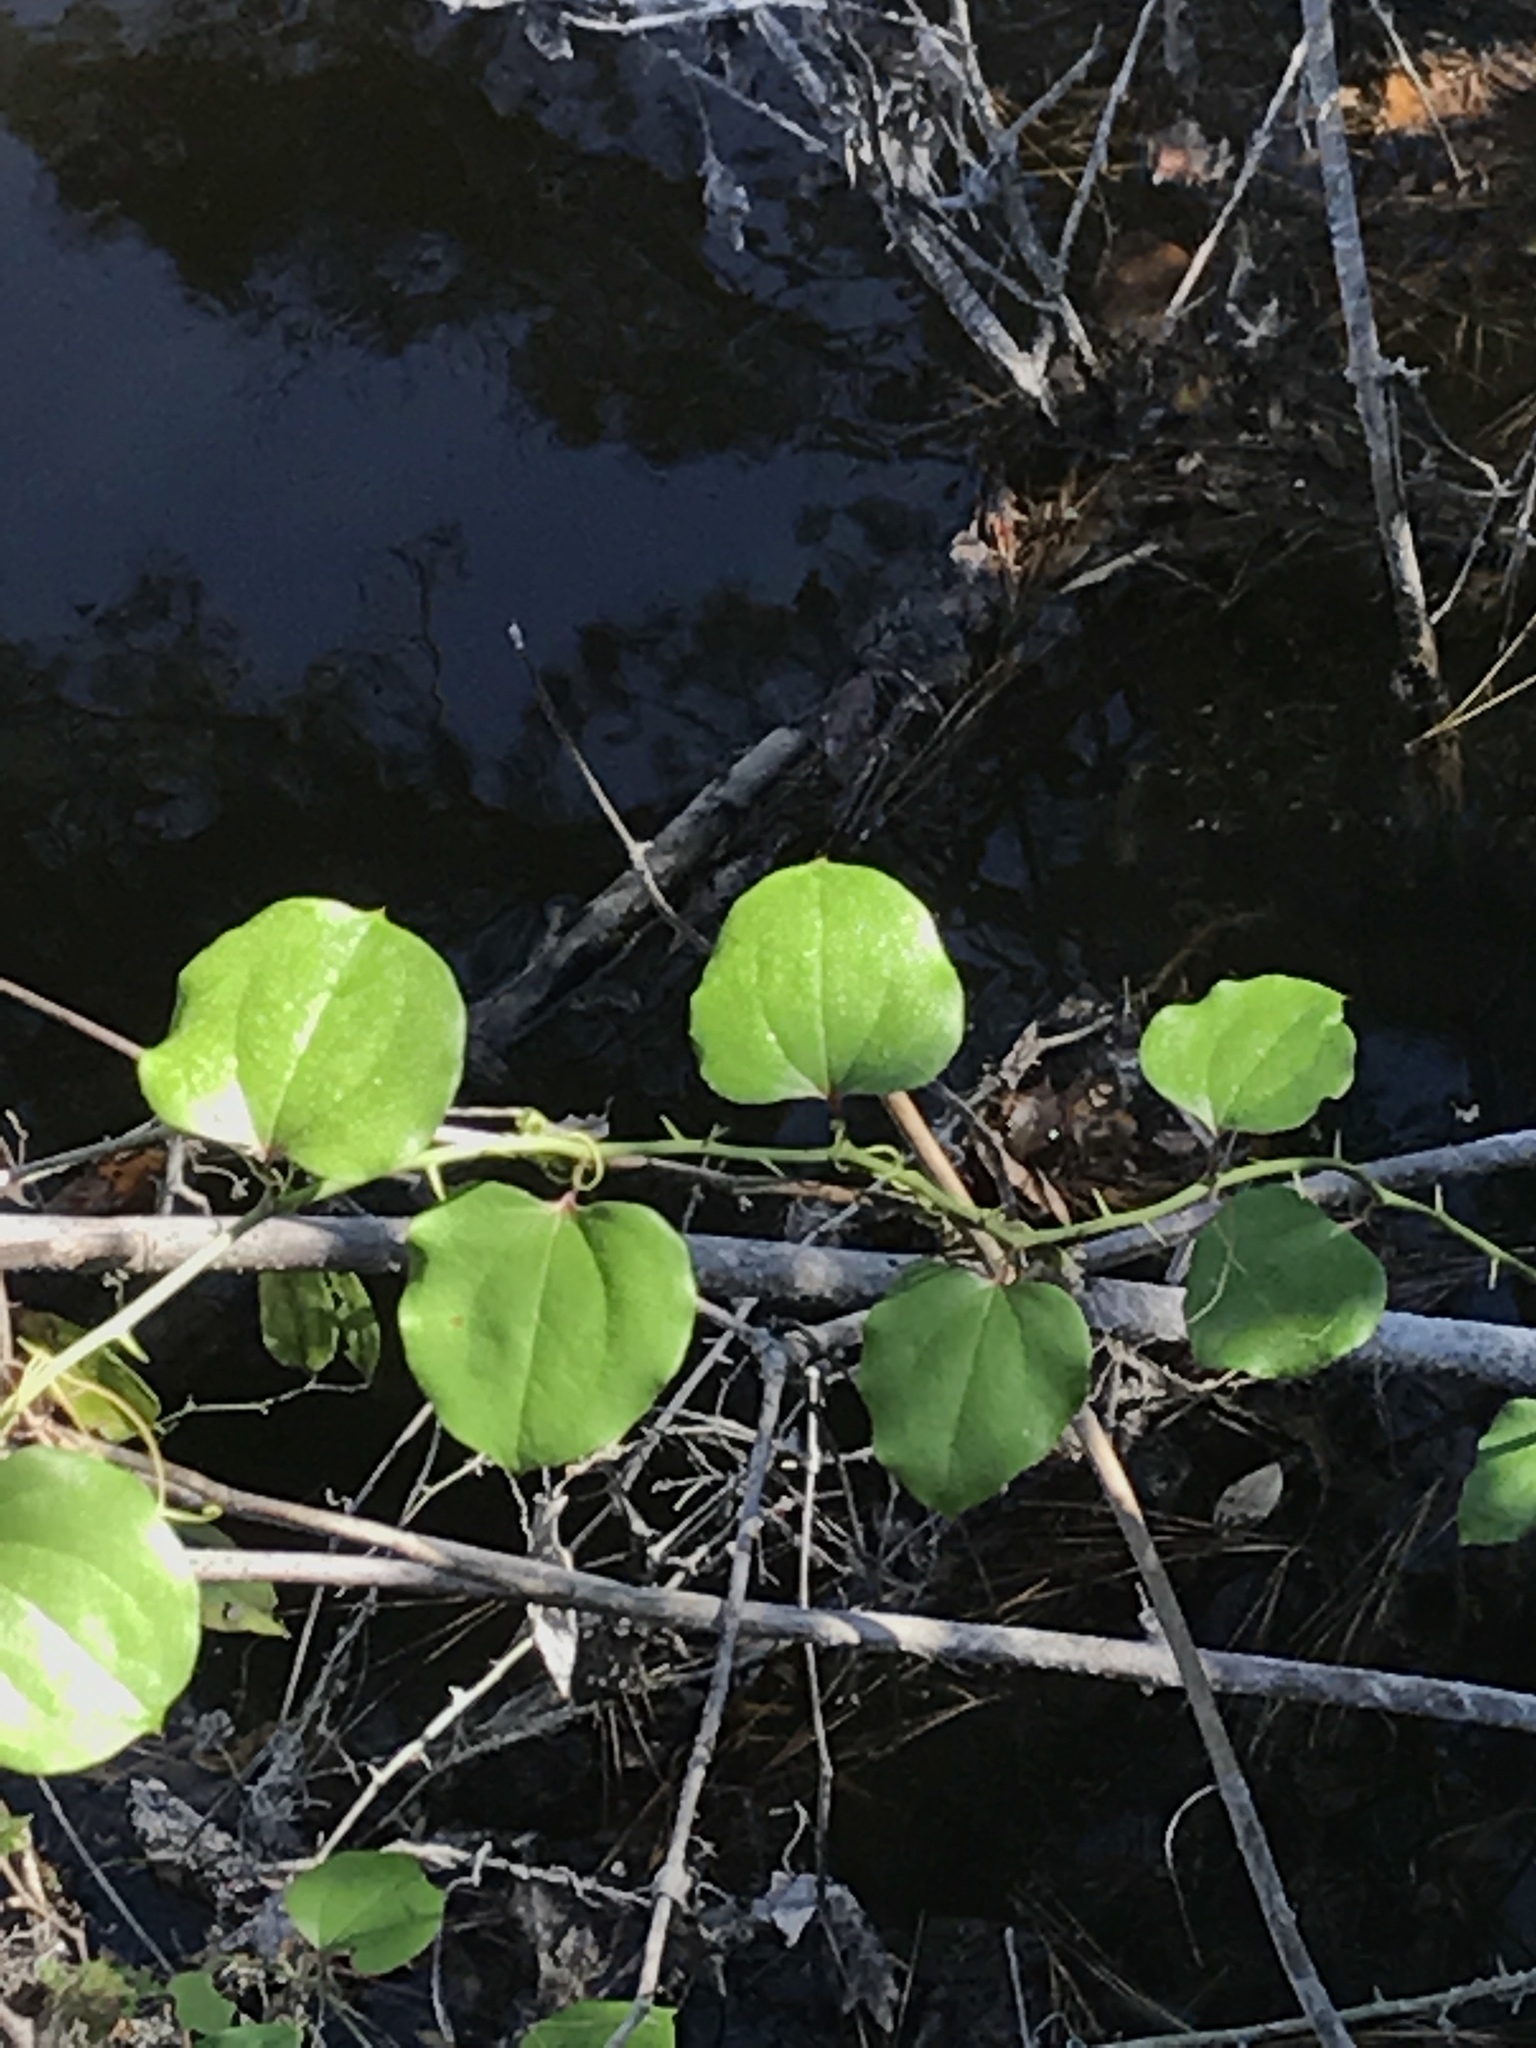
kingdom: Plantae
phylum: Tracheophyta
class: Liliopsida
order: Liliales
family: Smilacaceae
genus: Smilax
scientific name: Smilax rotundifolia
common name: Bullbriar
